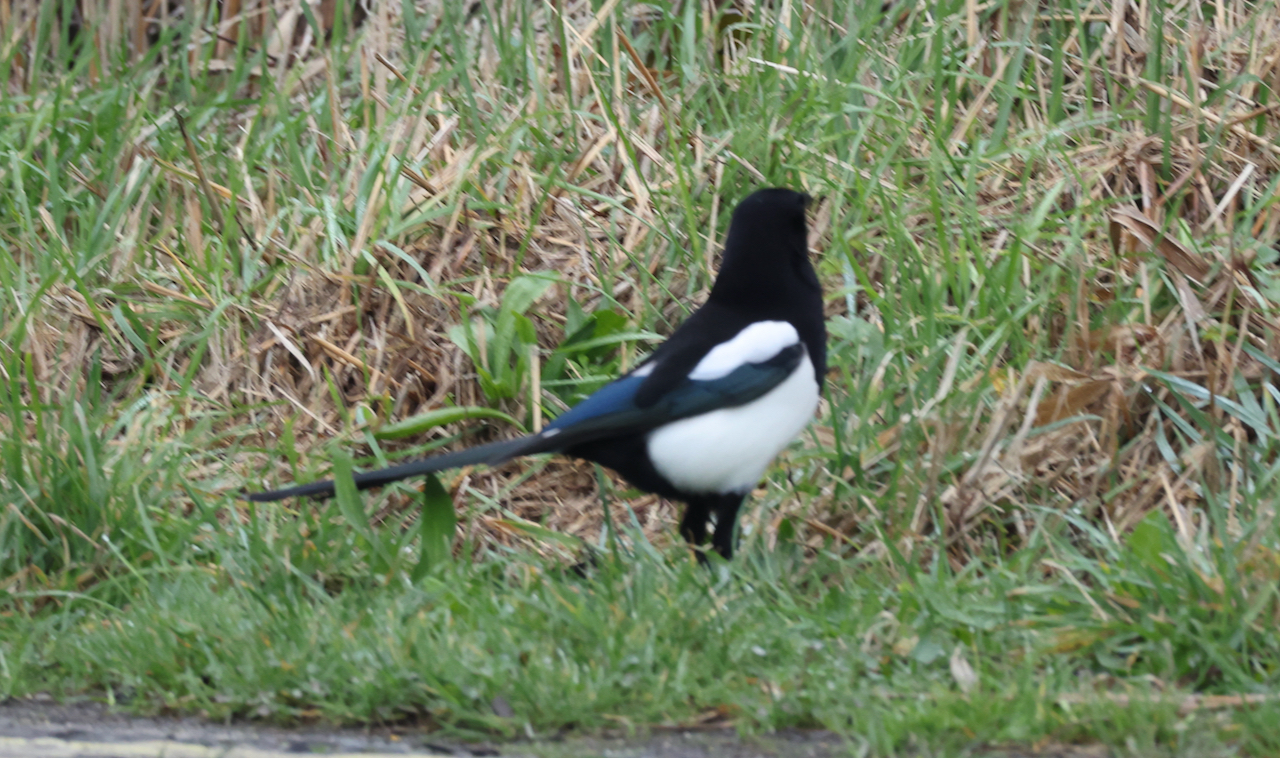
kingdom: Animalia
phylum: Chordata
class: Aves
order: Passeriformes
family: Corvidae
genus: Pica
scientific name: Pica pica
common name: Eurasian magpie
